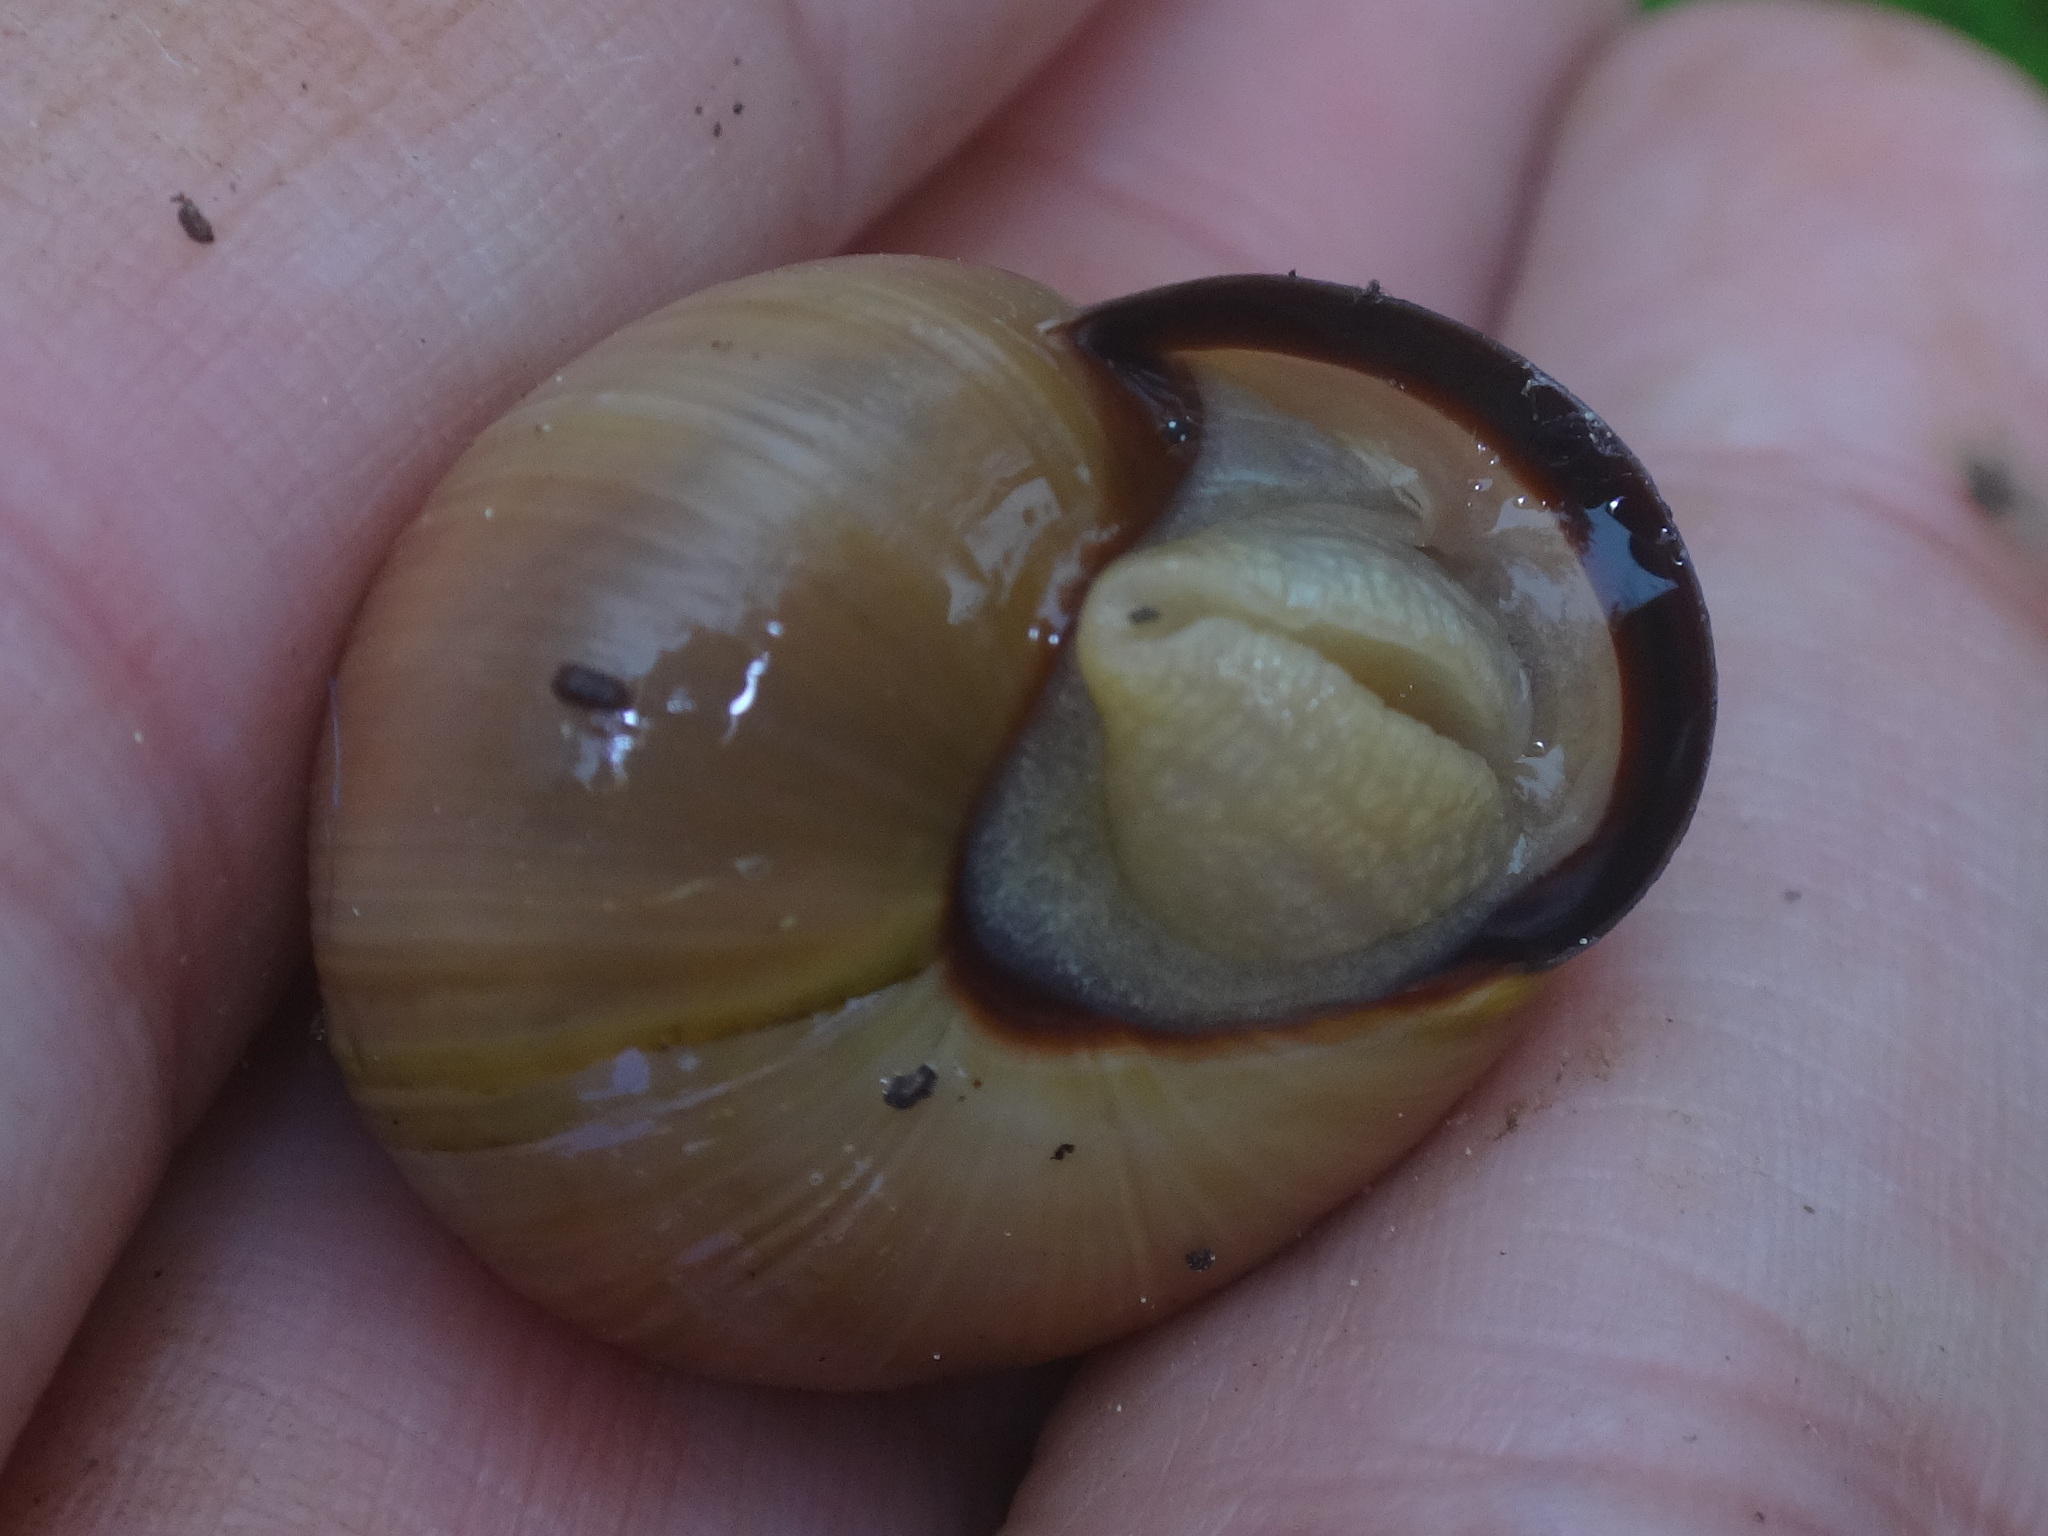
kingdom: Animalia
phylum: Mollusca
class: Gastropoda
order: Stylommatophora
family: Helicidae
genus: Cepaea
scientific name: Cepaea nemoralis
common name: Grovesnail
